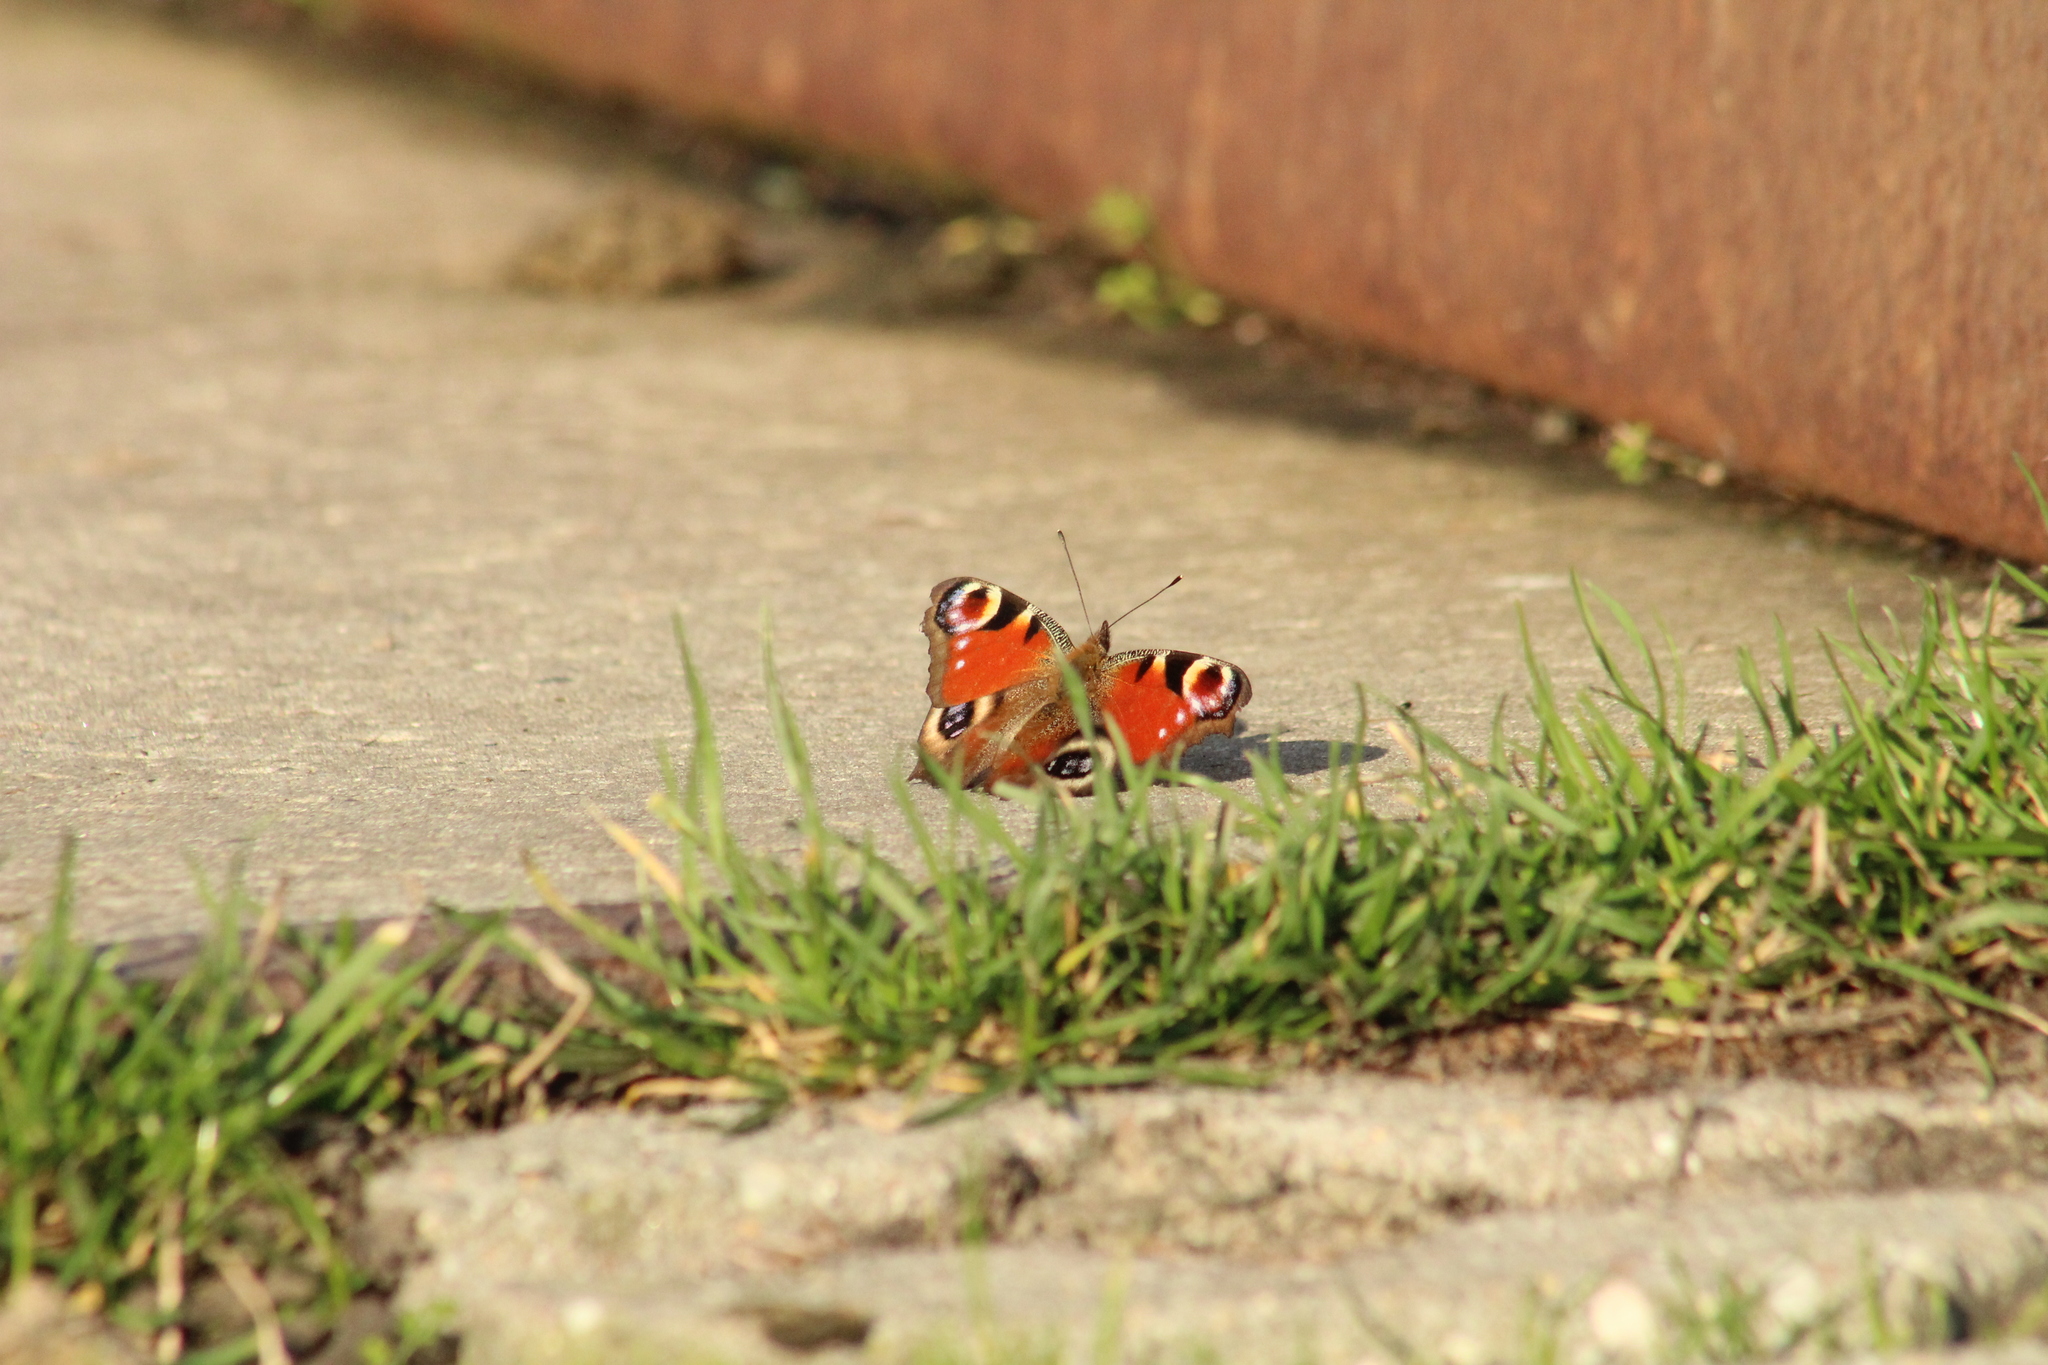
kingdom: Animalia
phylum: Arthropoda
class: Insecta
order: Lepidoptera
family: Nymphalidae
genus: Aglais
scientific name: Aglais io
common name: Peacock
